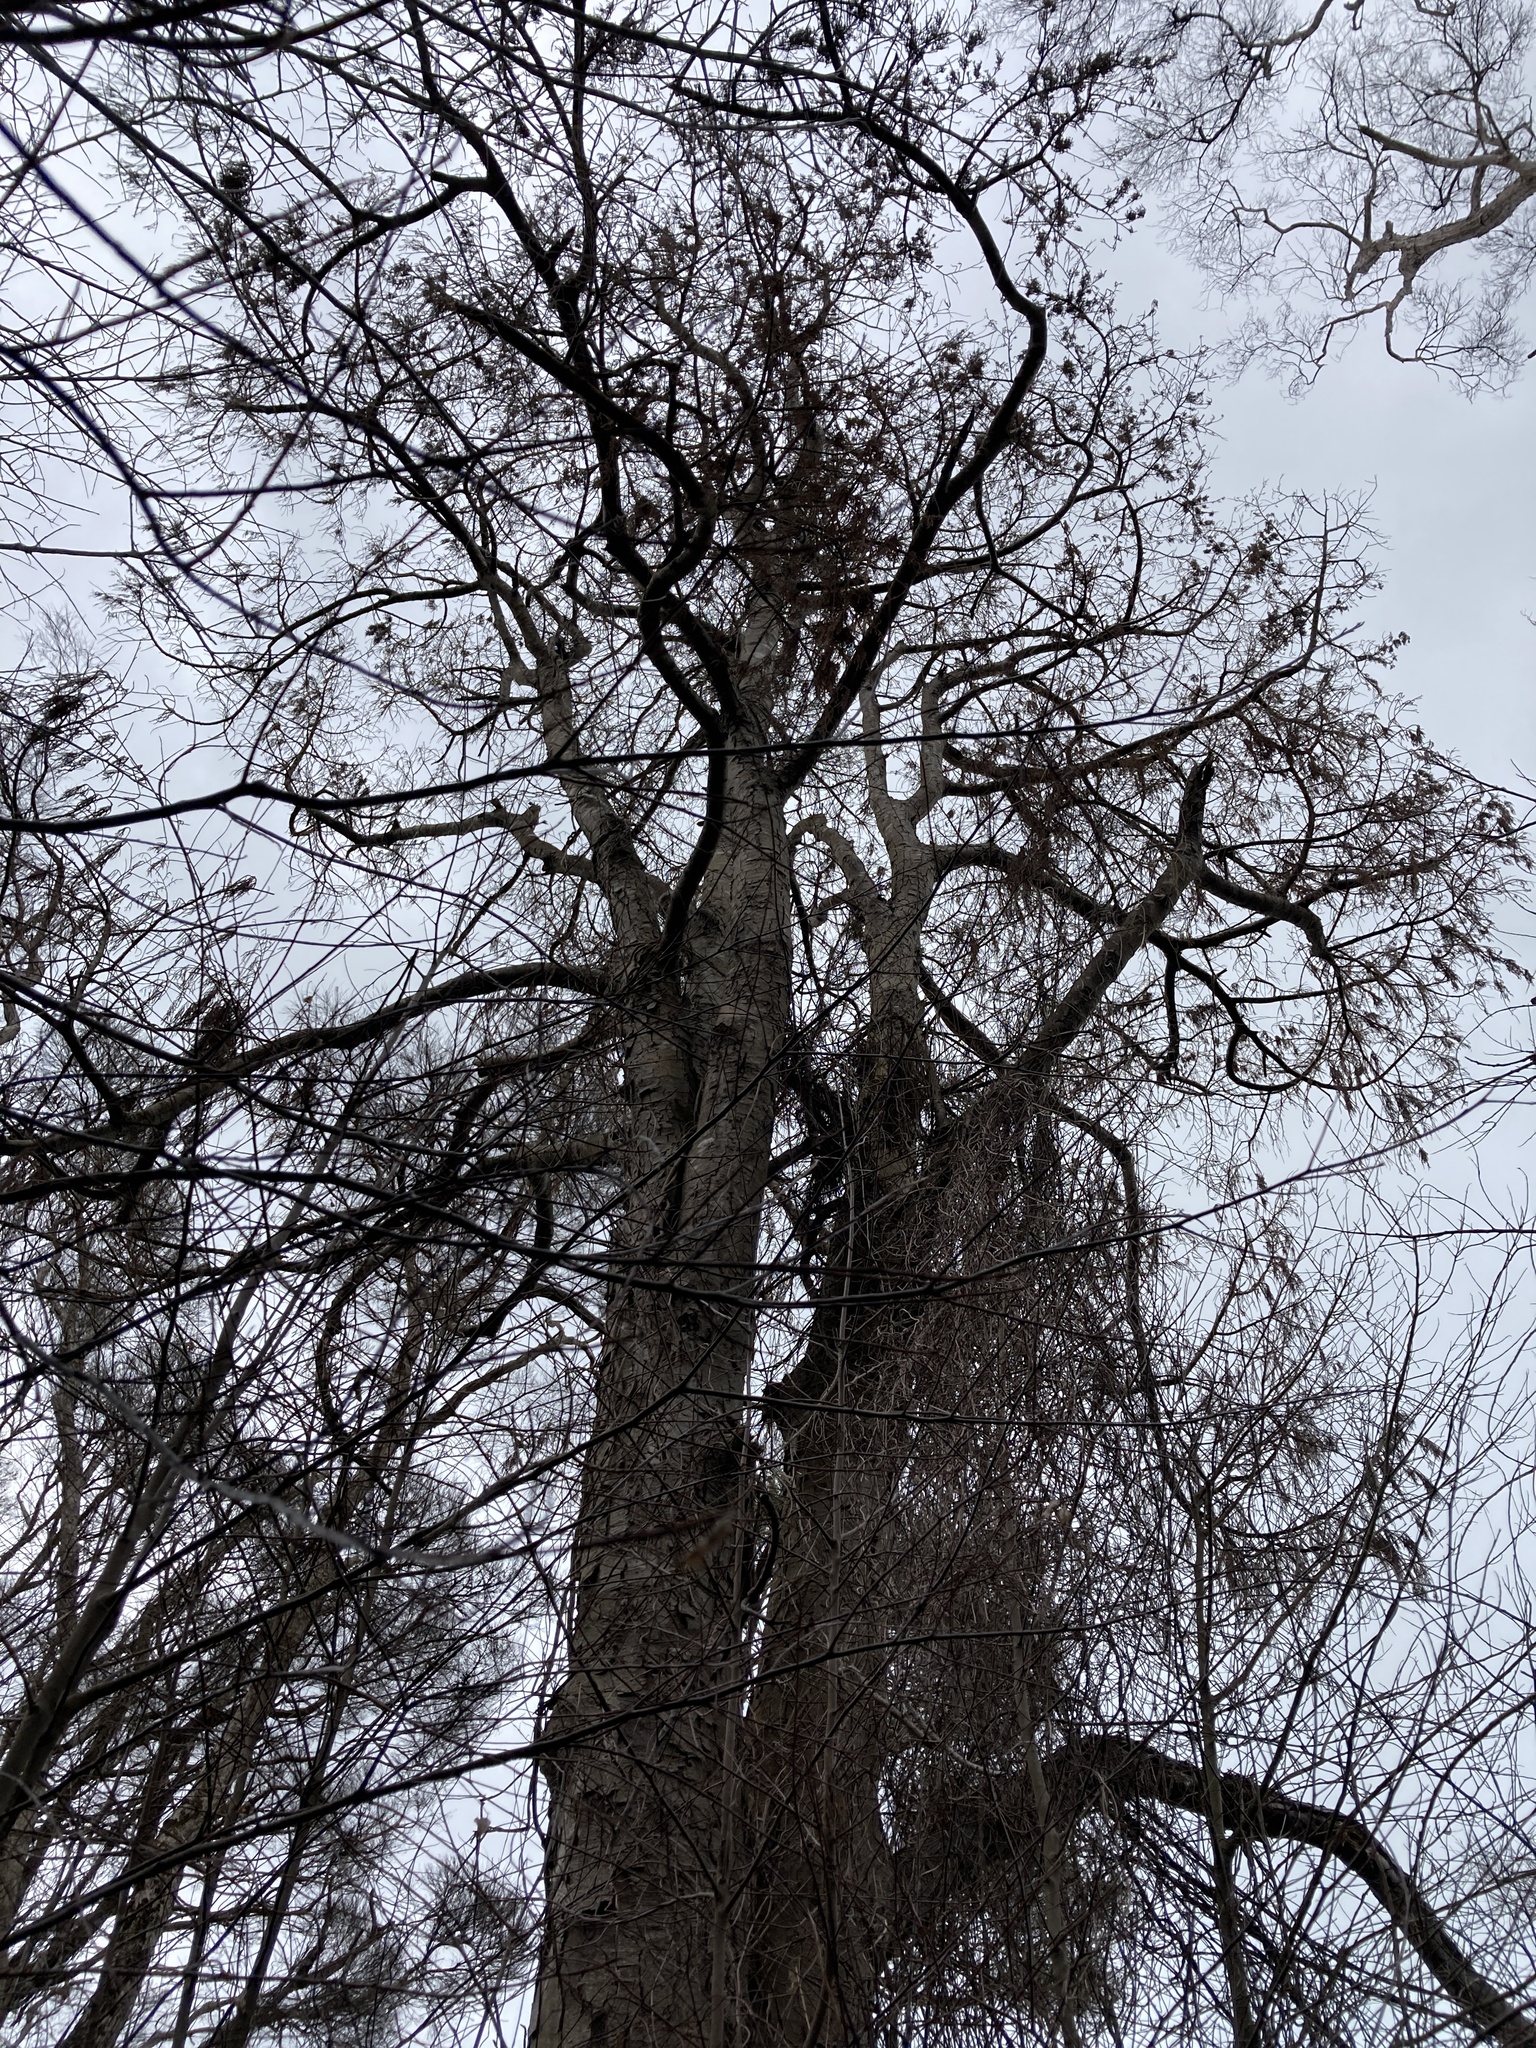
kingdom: Plantae
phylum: Tracheophyta
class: Pinopsida
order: Pinales
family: Podocarpaceae
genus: Dacrydium
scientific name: Dacrydium cupressinum
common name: Red pine
